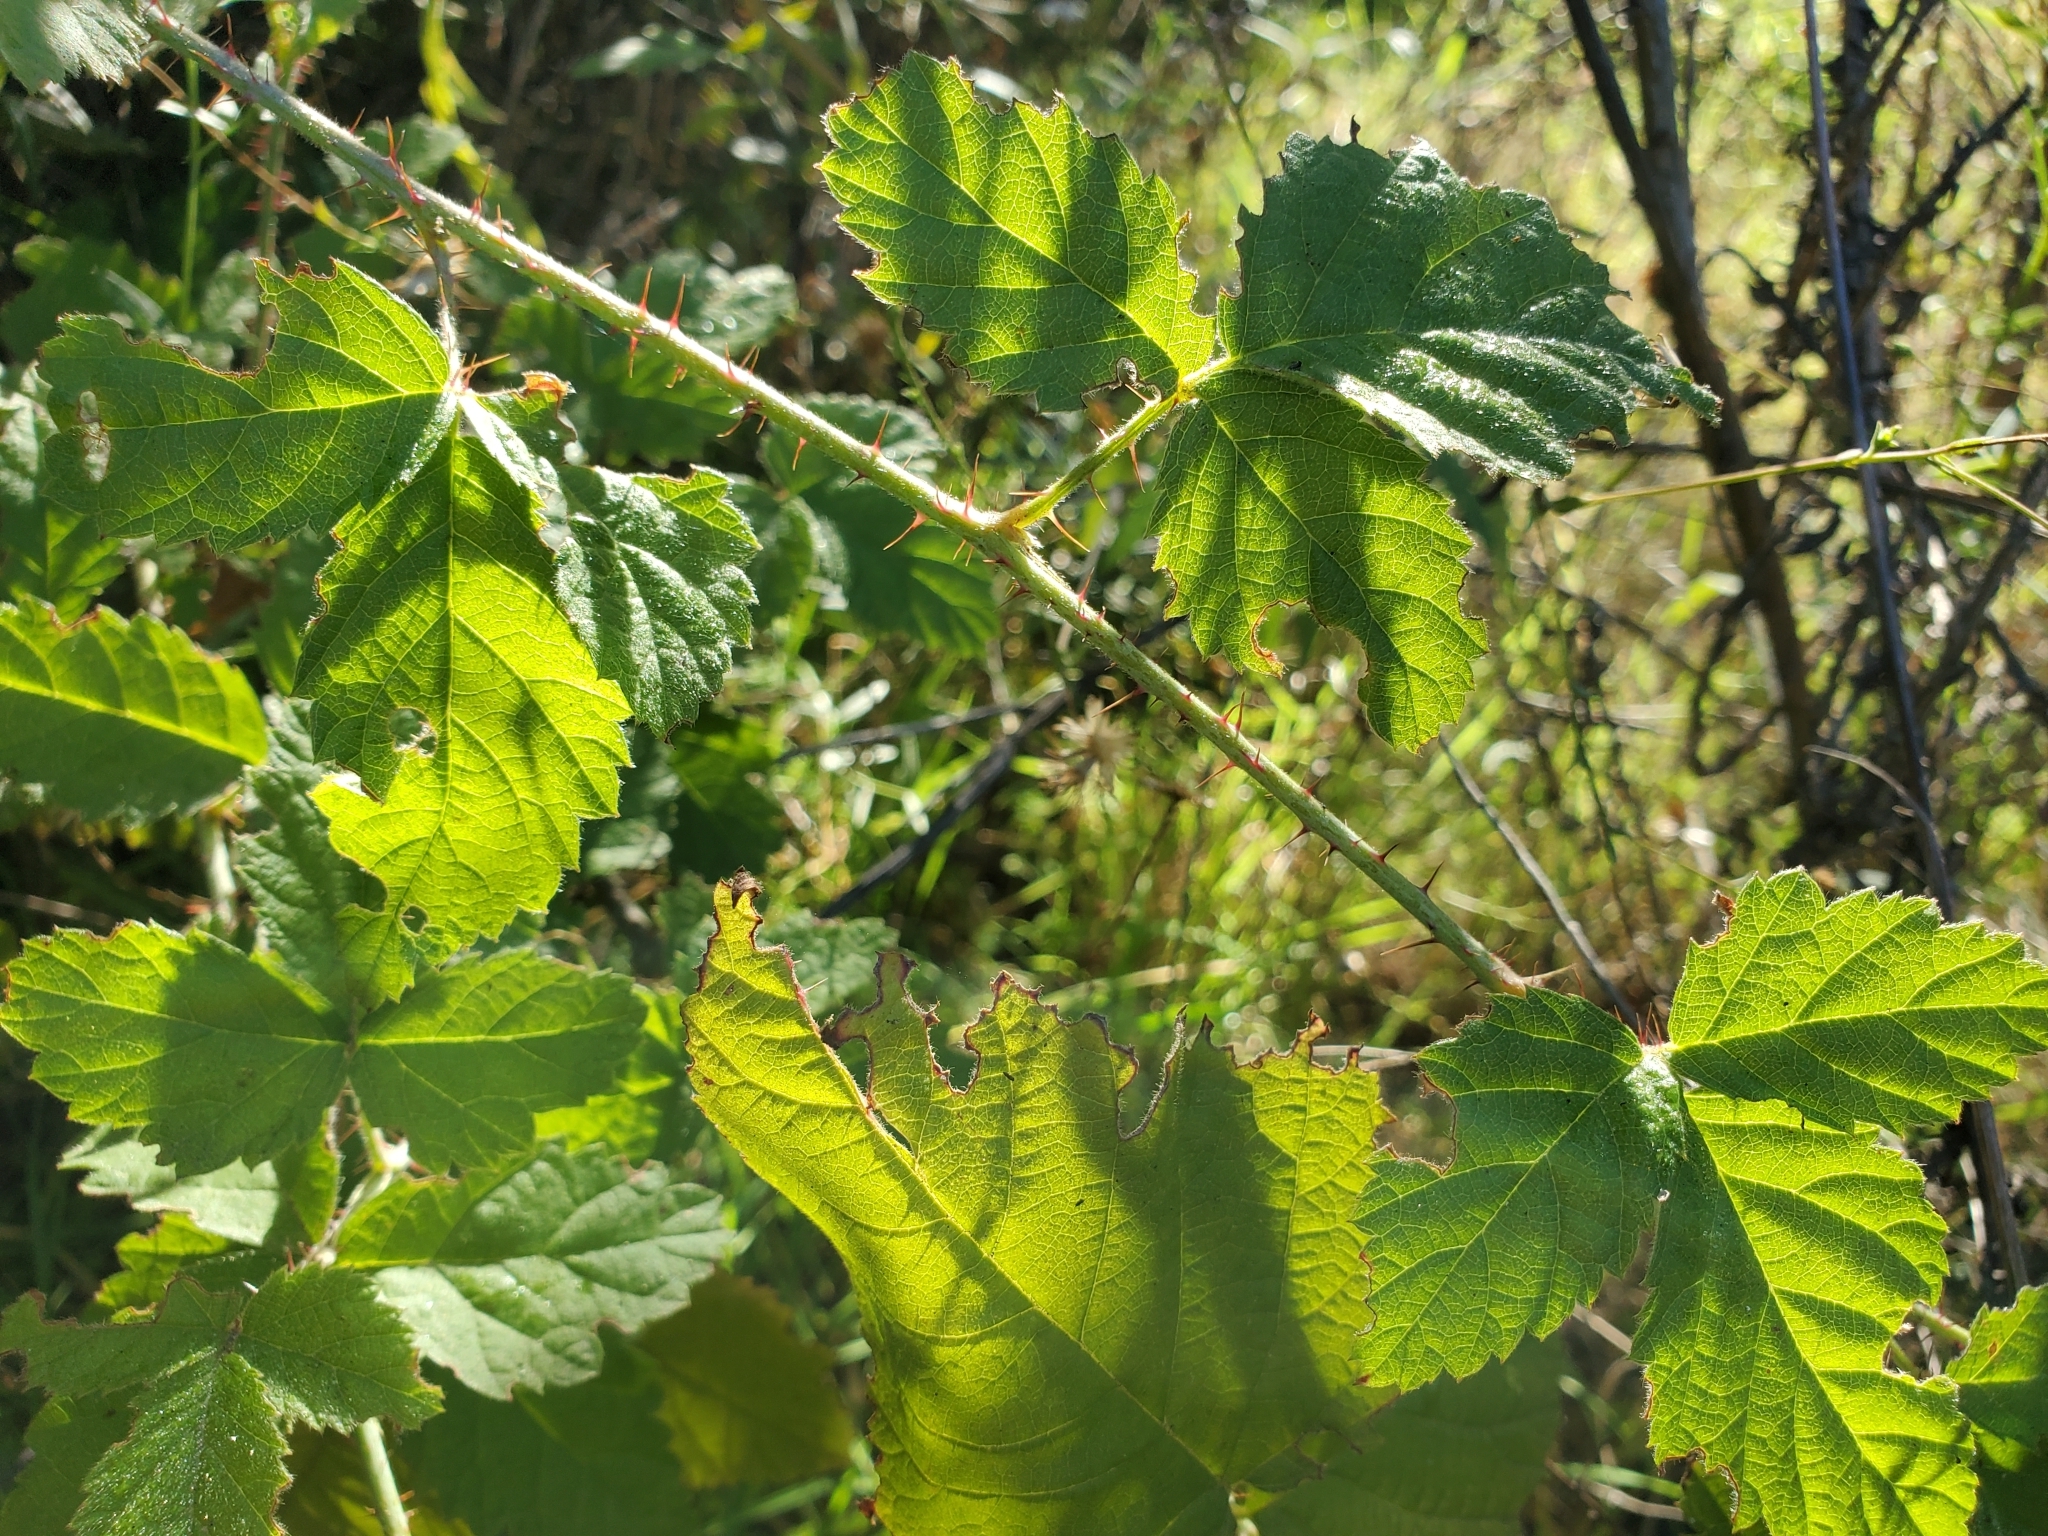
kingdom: Plantae
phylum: Tracheophyta
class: Magnoliopsida
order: Rosales
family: Rosaceae
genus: Rubus
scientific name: Rubus ursinus
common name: Pacific blackberry
